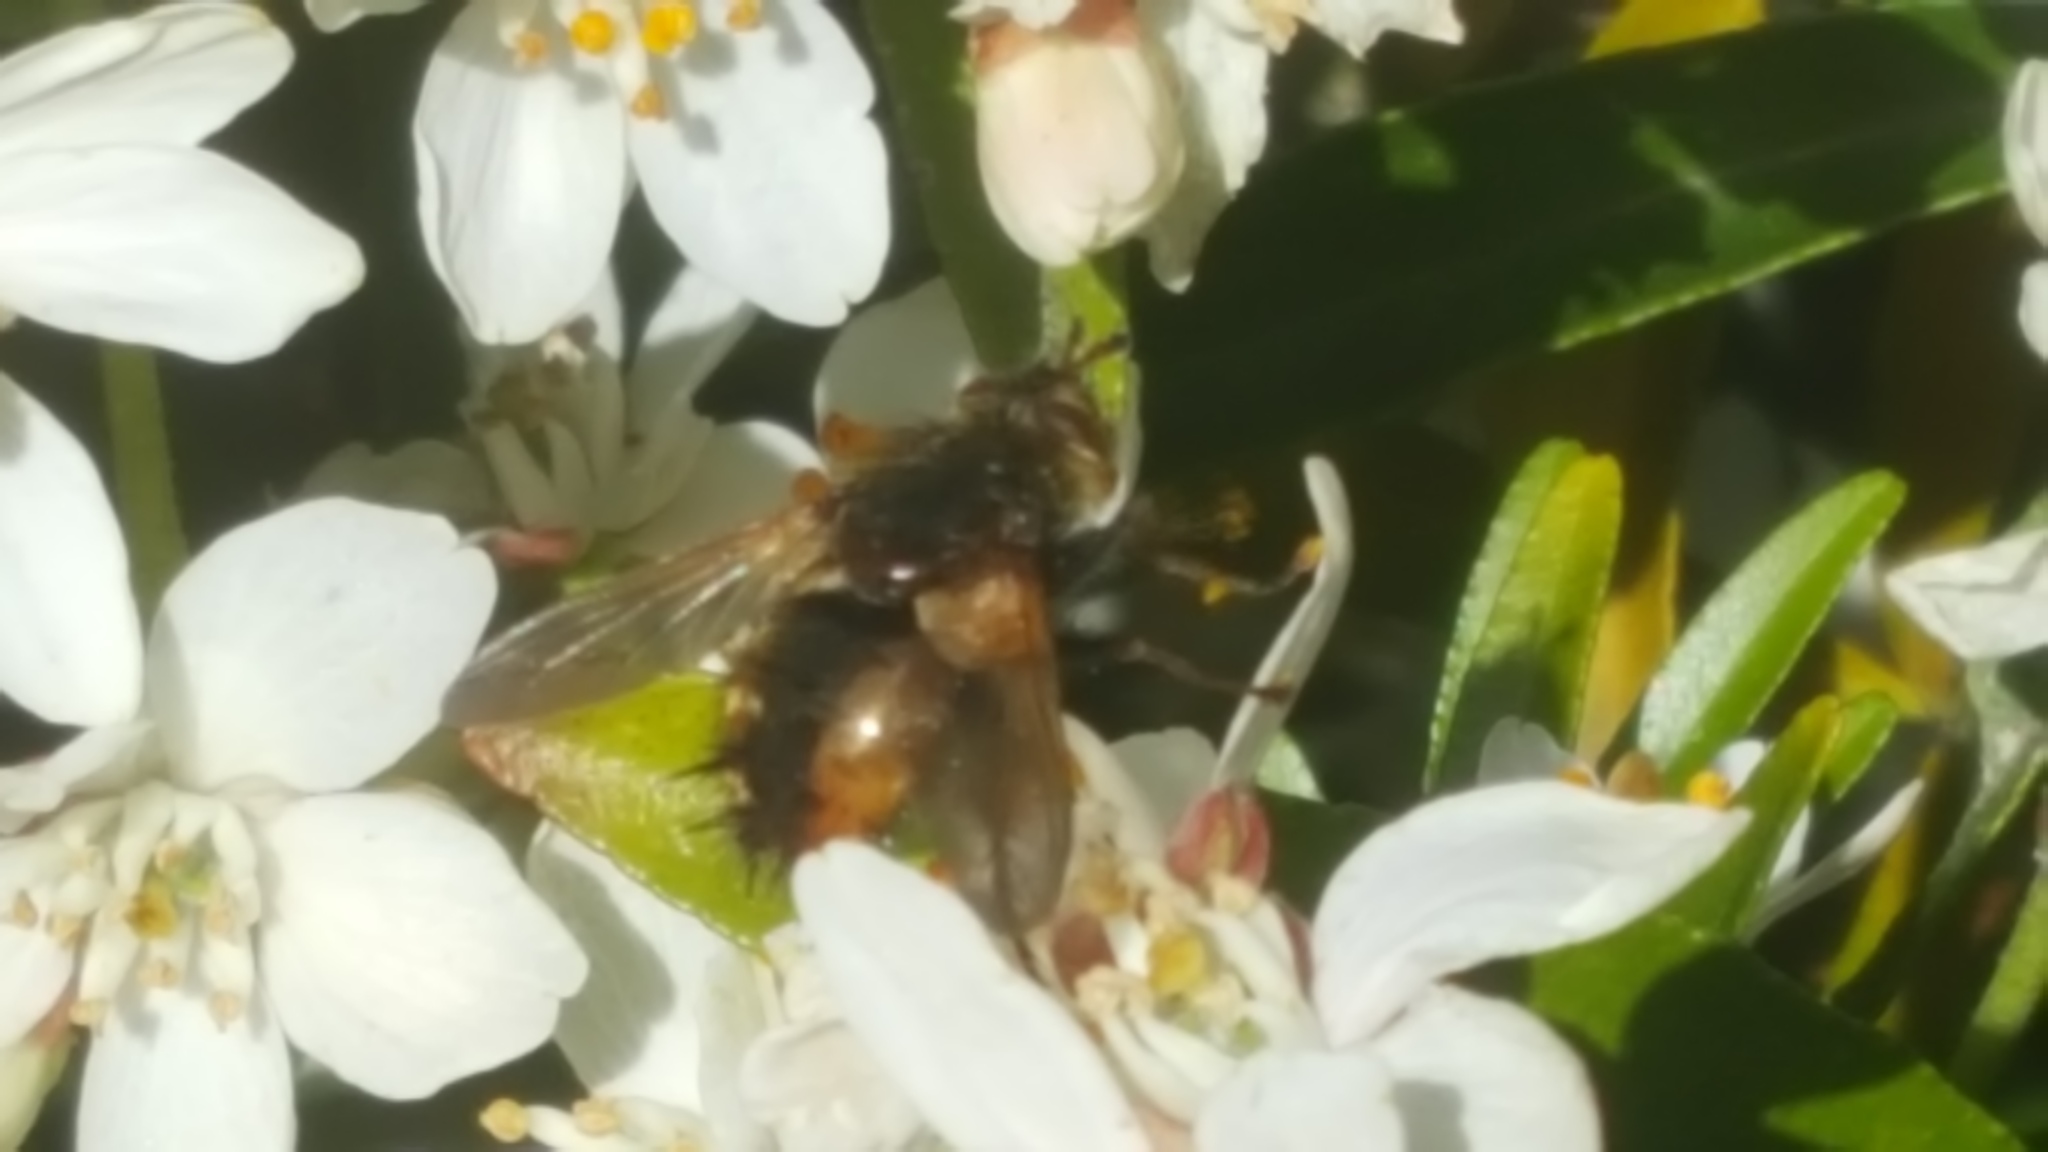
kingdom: Animalia
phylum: Arthropoda
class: Insecta
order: Diptera
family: Tachinidae
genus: Tachina
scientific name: Tachina fera
